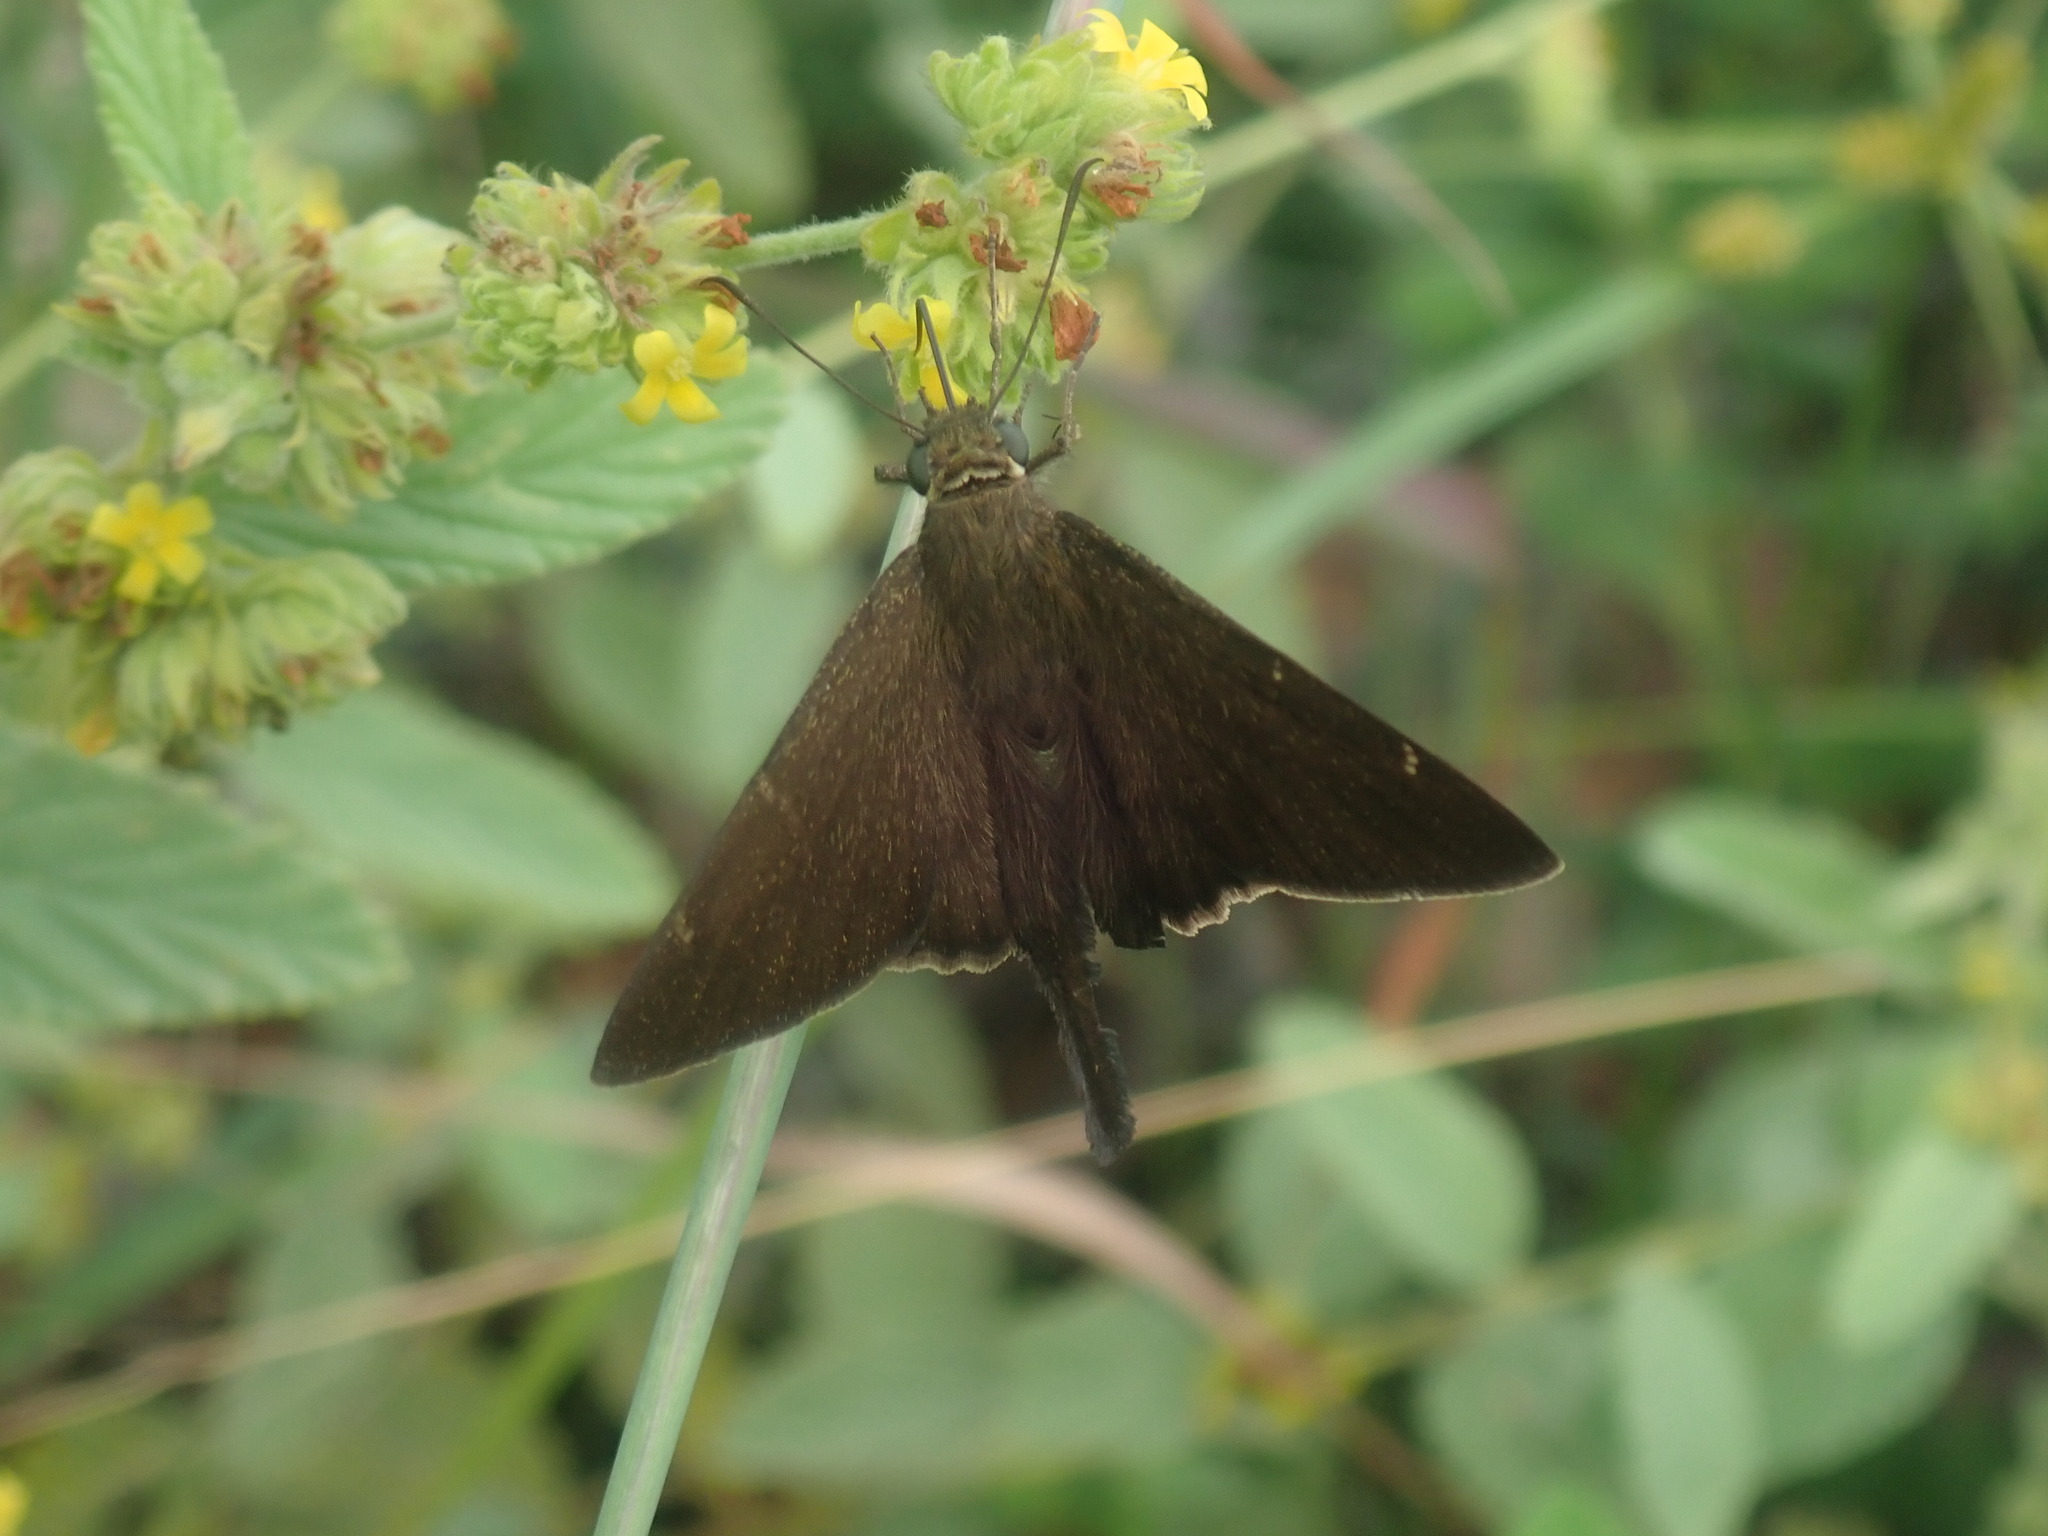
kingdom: Animalia
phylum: Arthropoda
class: Insecta
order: Lepidoptera
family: Hesperiidae
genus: Urbanus
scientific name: Urbanus procne
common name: Brown longtail
